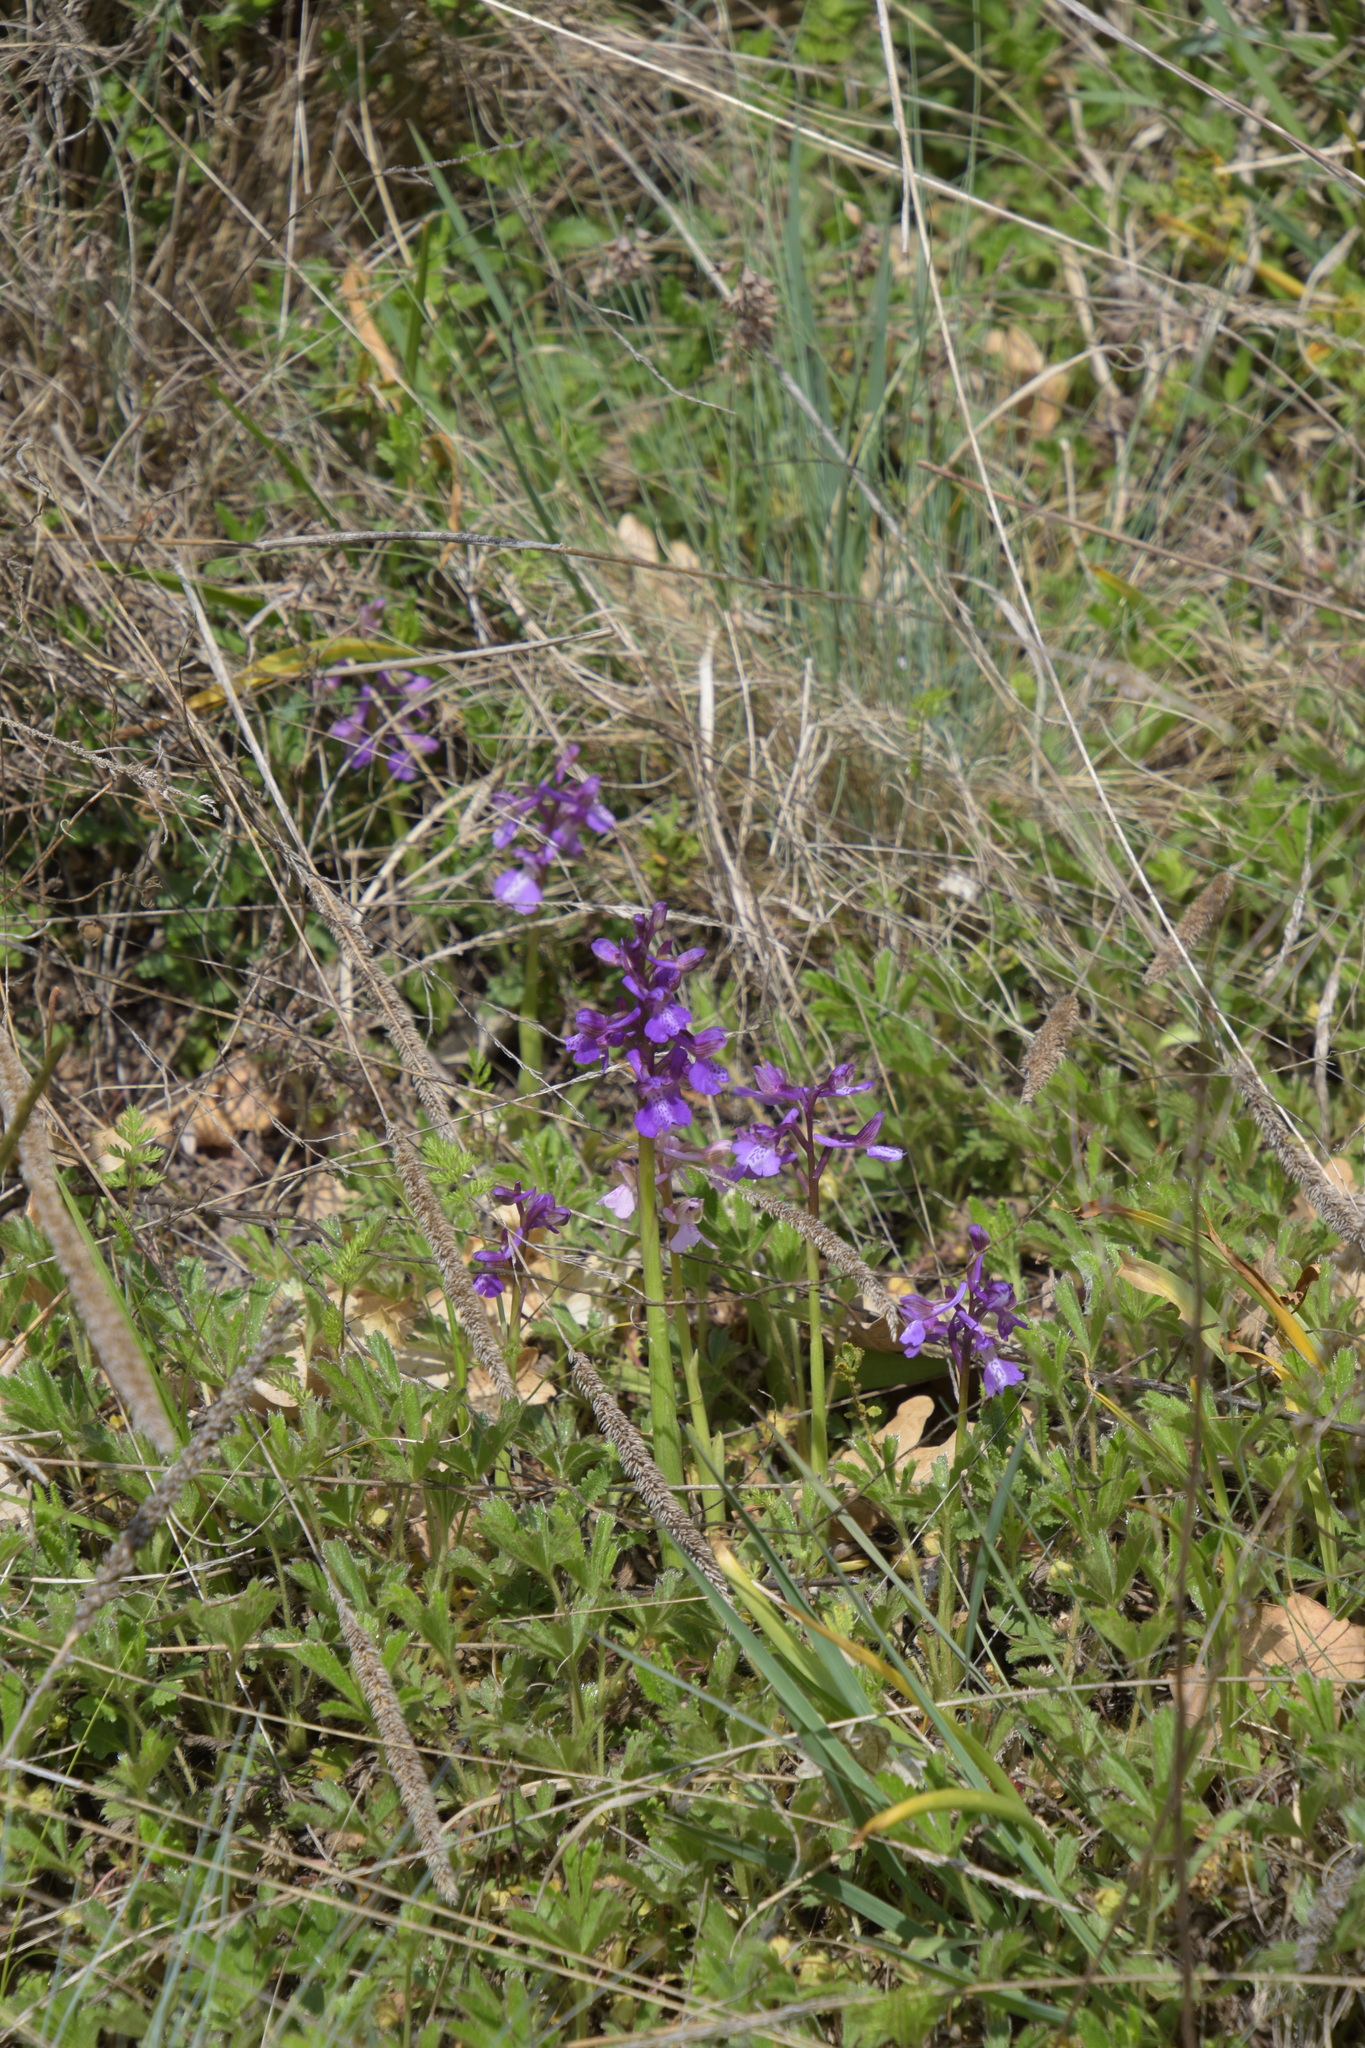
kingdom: Plantae
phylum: Tracheophyta
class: Liliopsida
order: Asparagales
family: Orchidaceae
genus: Anacamptis
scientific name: Anacamptis morio
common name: Green-winged orchid
